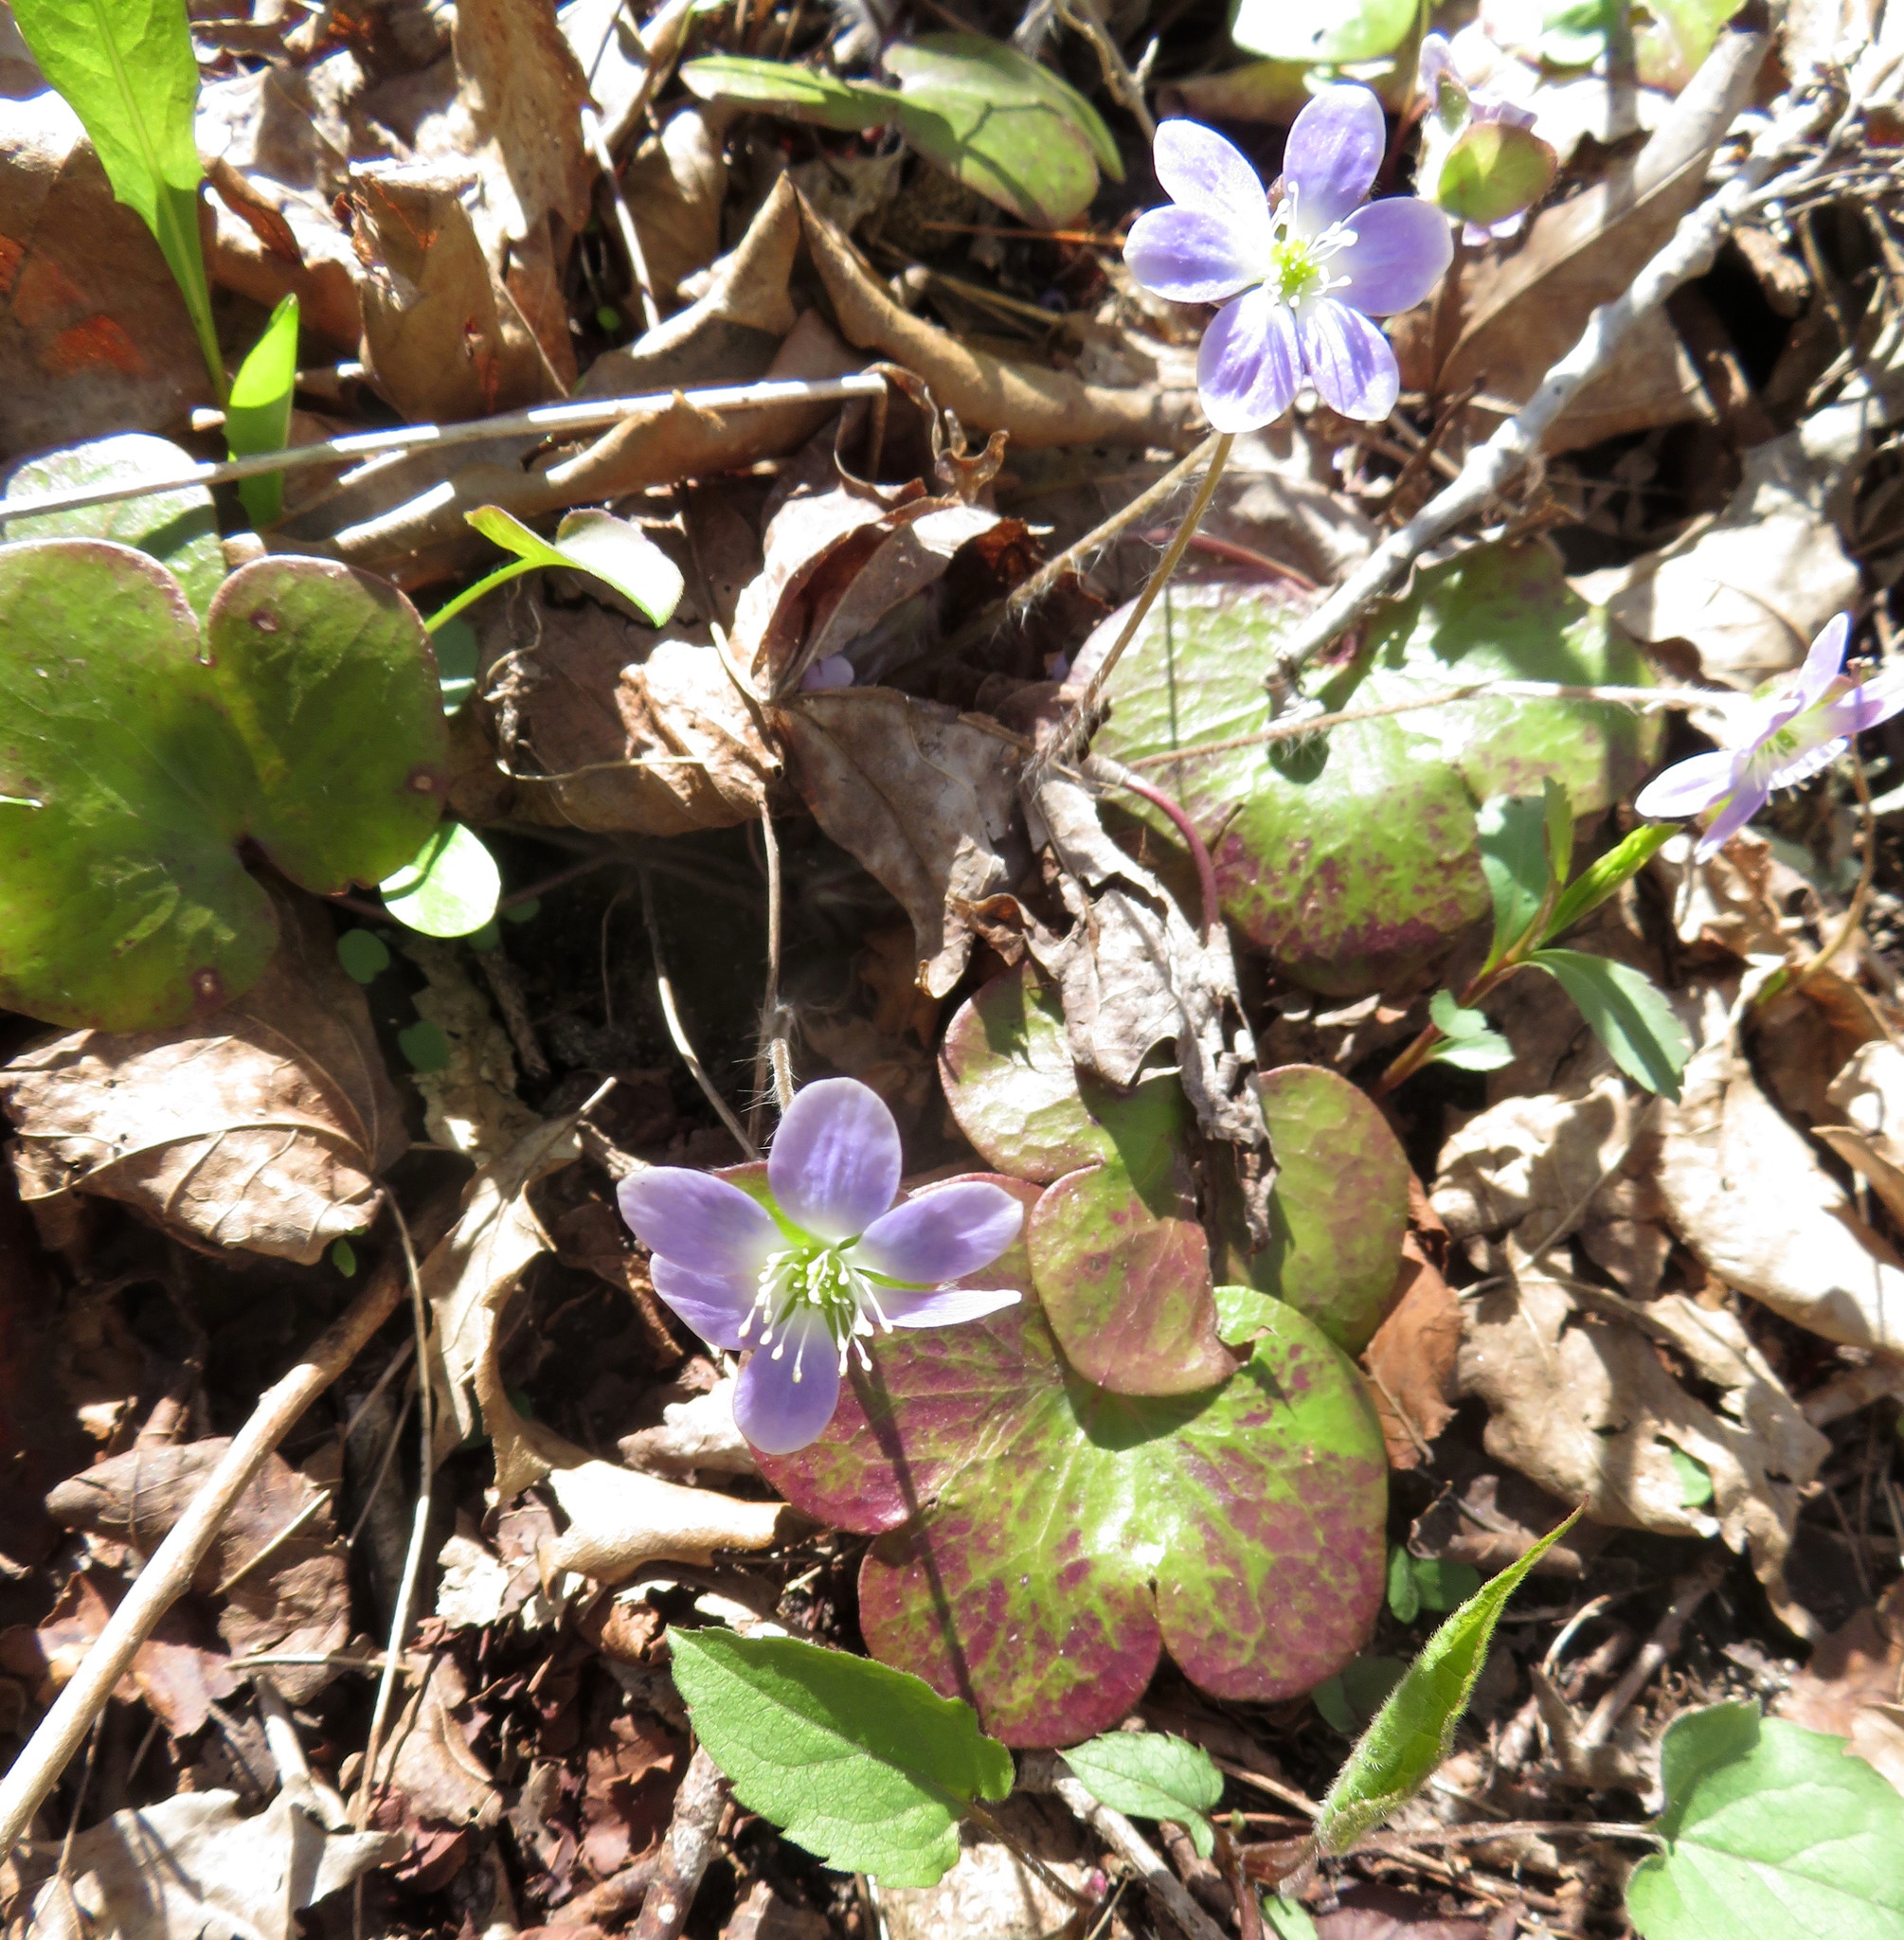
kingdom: Plantae
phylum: Tracheophyta
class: Magnoliopsida
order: Ranunculales
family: Ranunculaceae
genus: Hepatica
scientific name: Hepatica americana
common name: American hepatica
